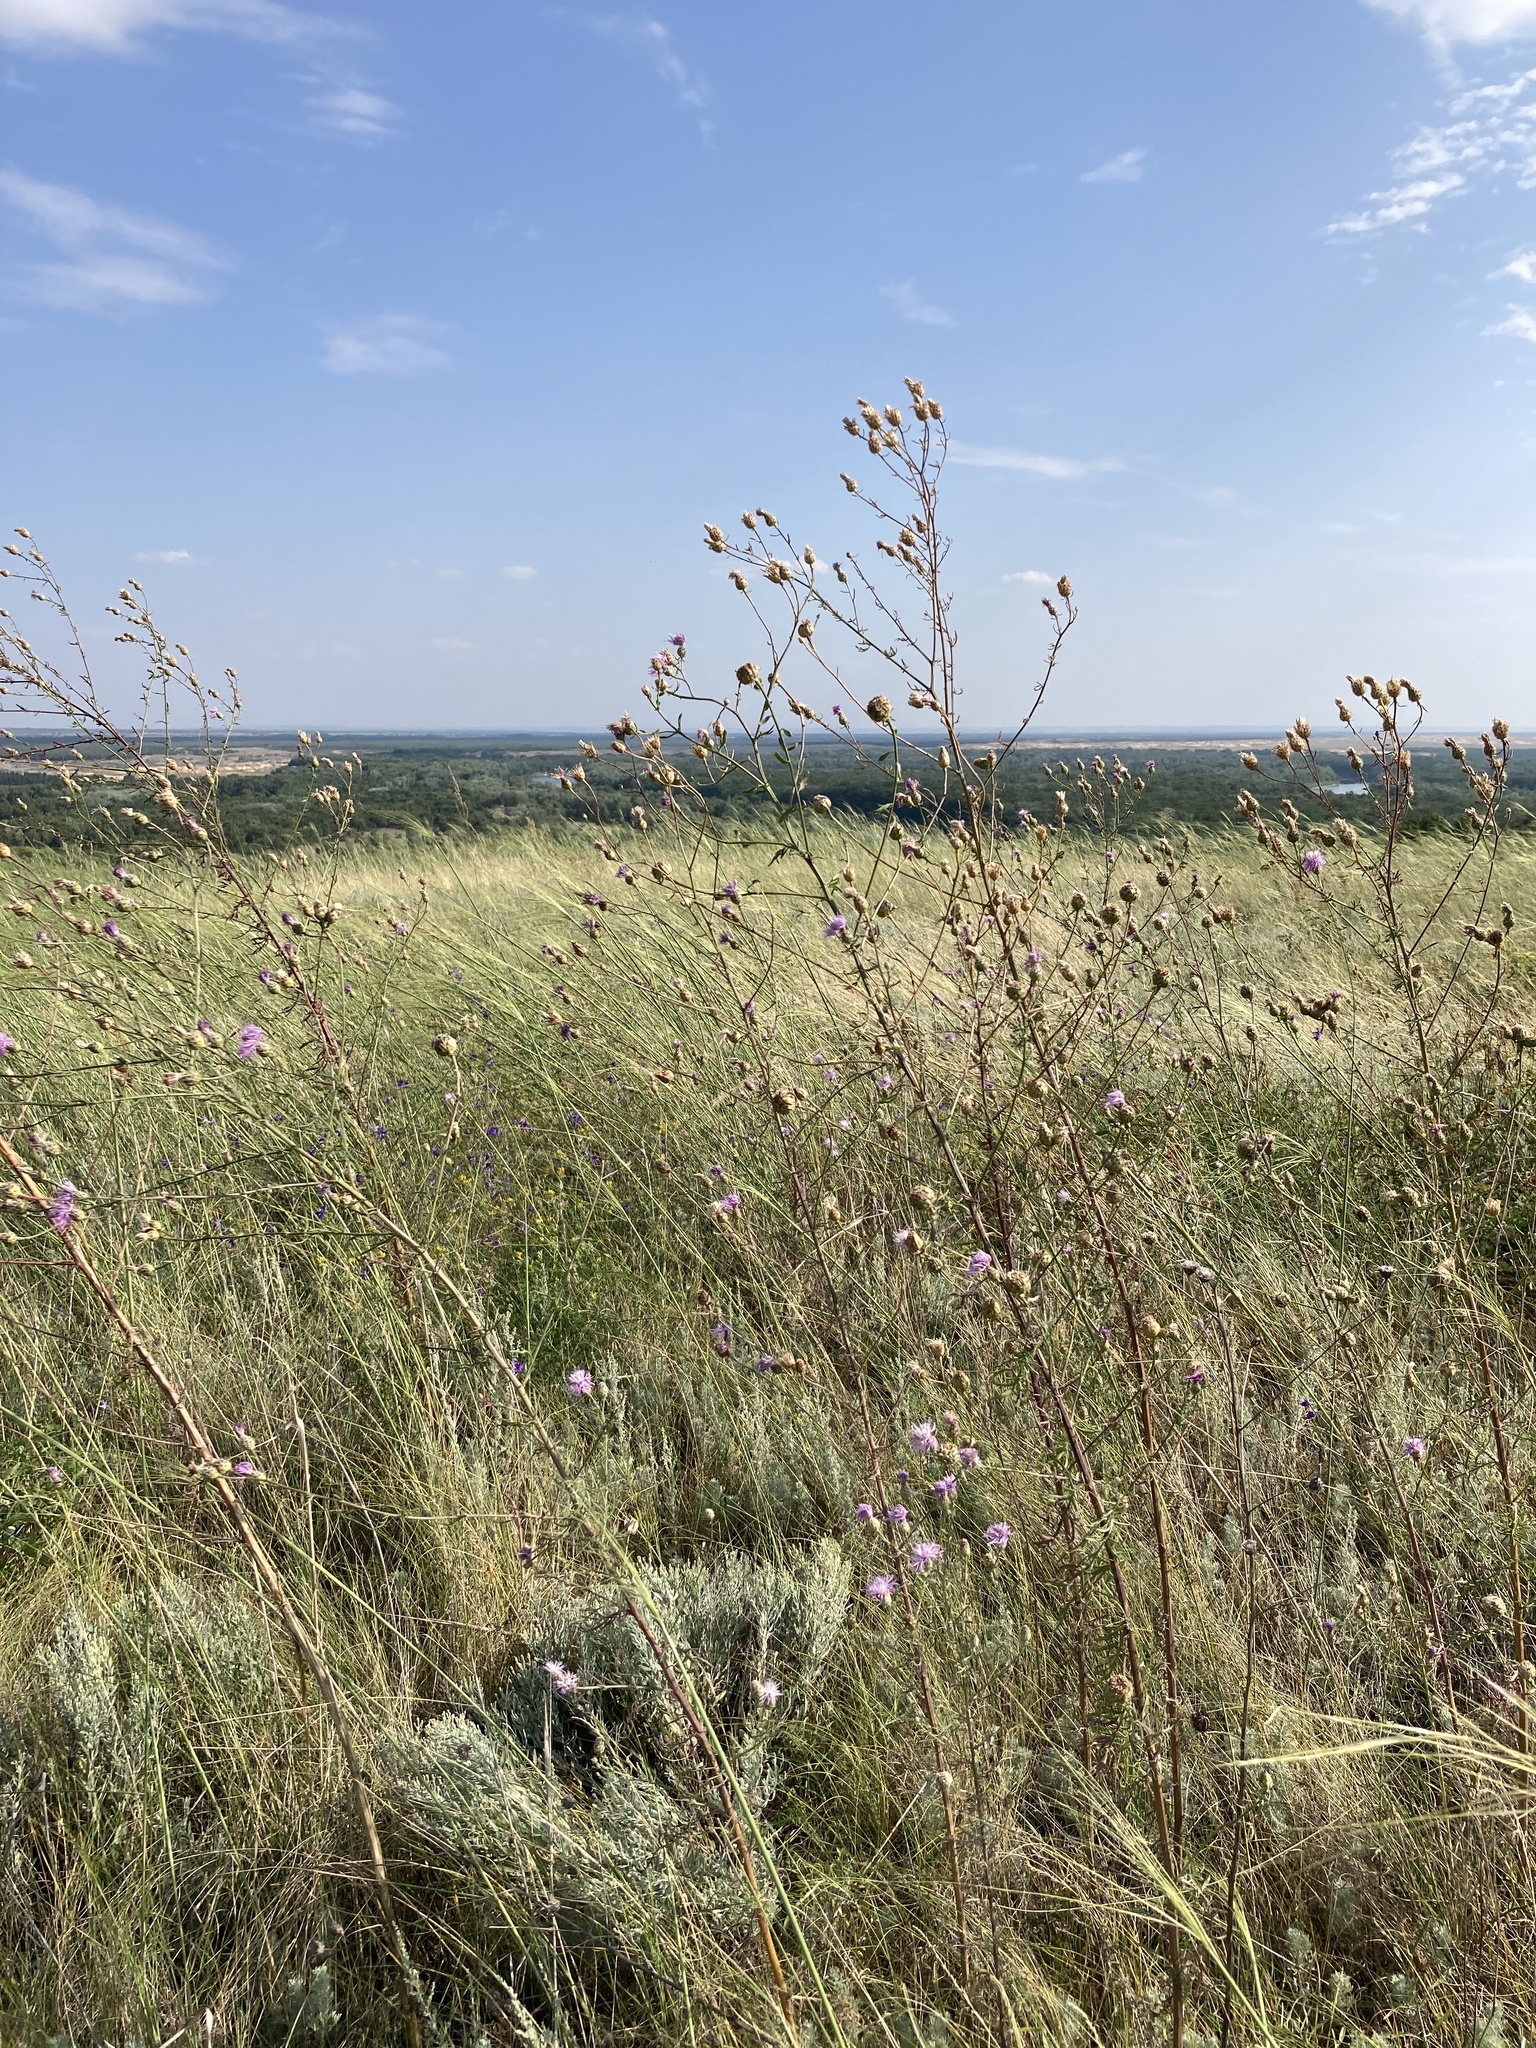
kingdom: Plantae
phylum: Tracheophyta
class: Magnoliopsida
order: Asterales
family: Asteraceae
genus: Centaurea
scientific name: Centaurea stoebe
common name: Spotted knapweed
